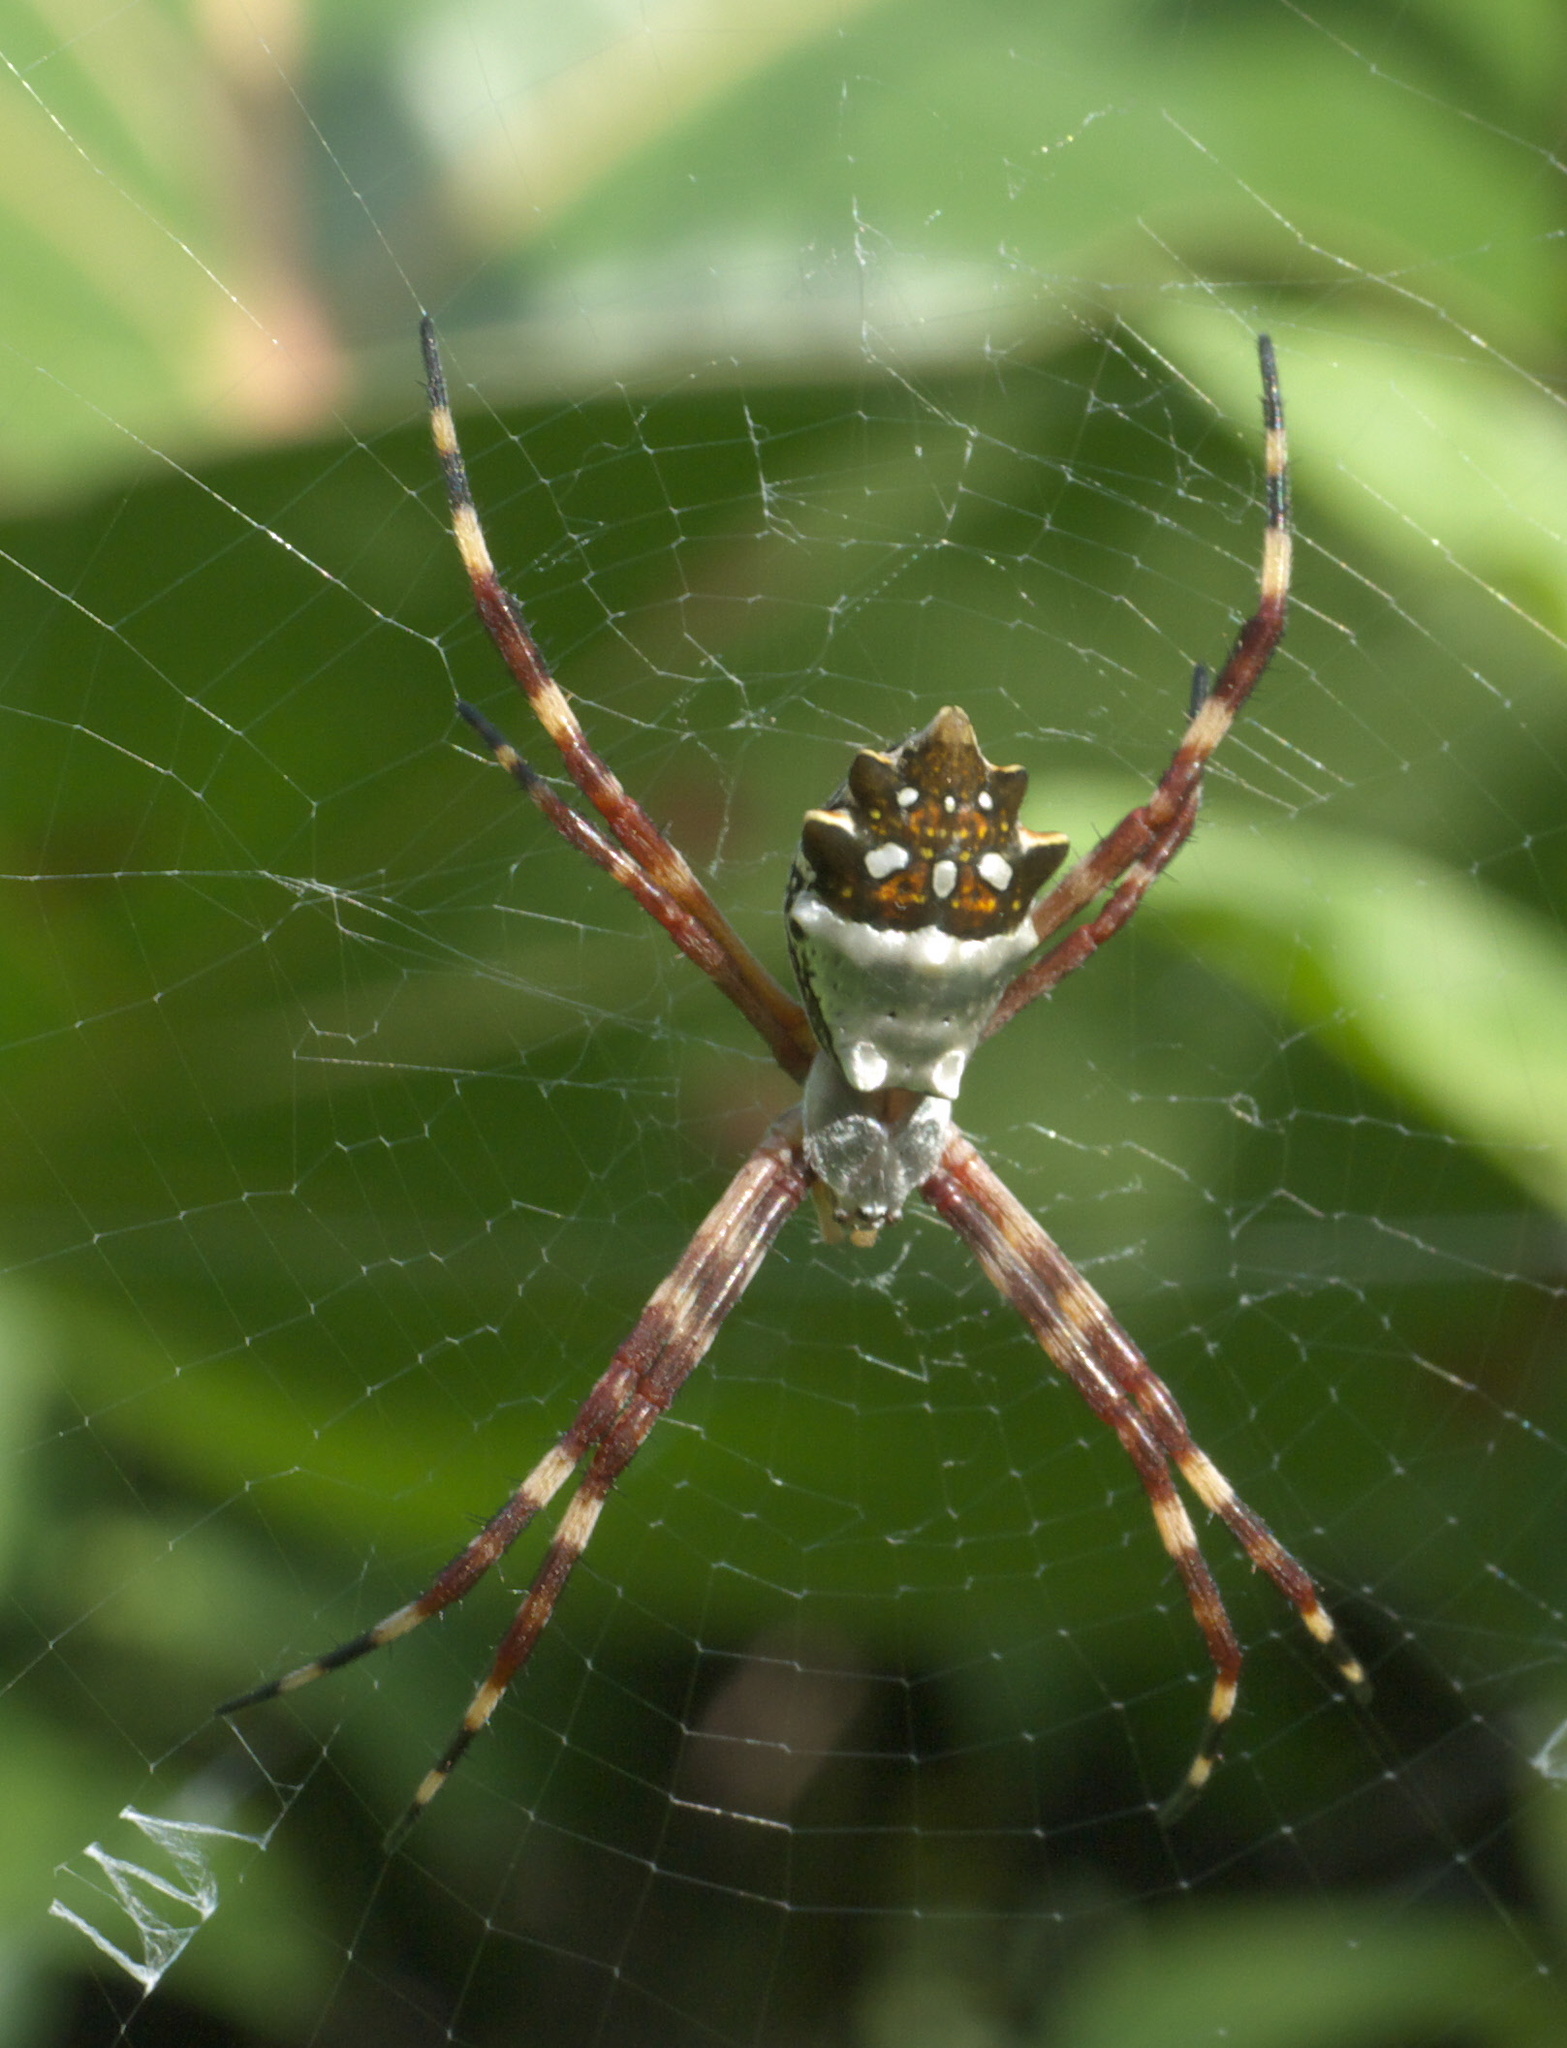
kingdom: Animalia
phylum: Arthropoda
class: Arachnida
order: Araneae
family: Araneidae
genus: Argiope
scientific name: Argiope argentata
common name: Orb weavers
